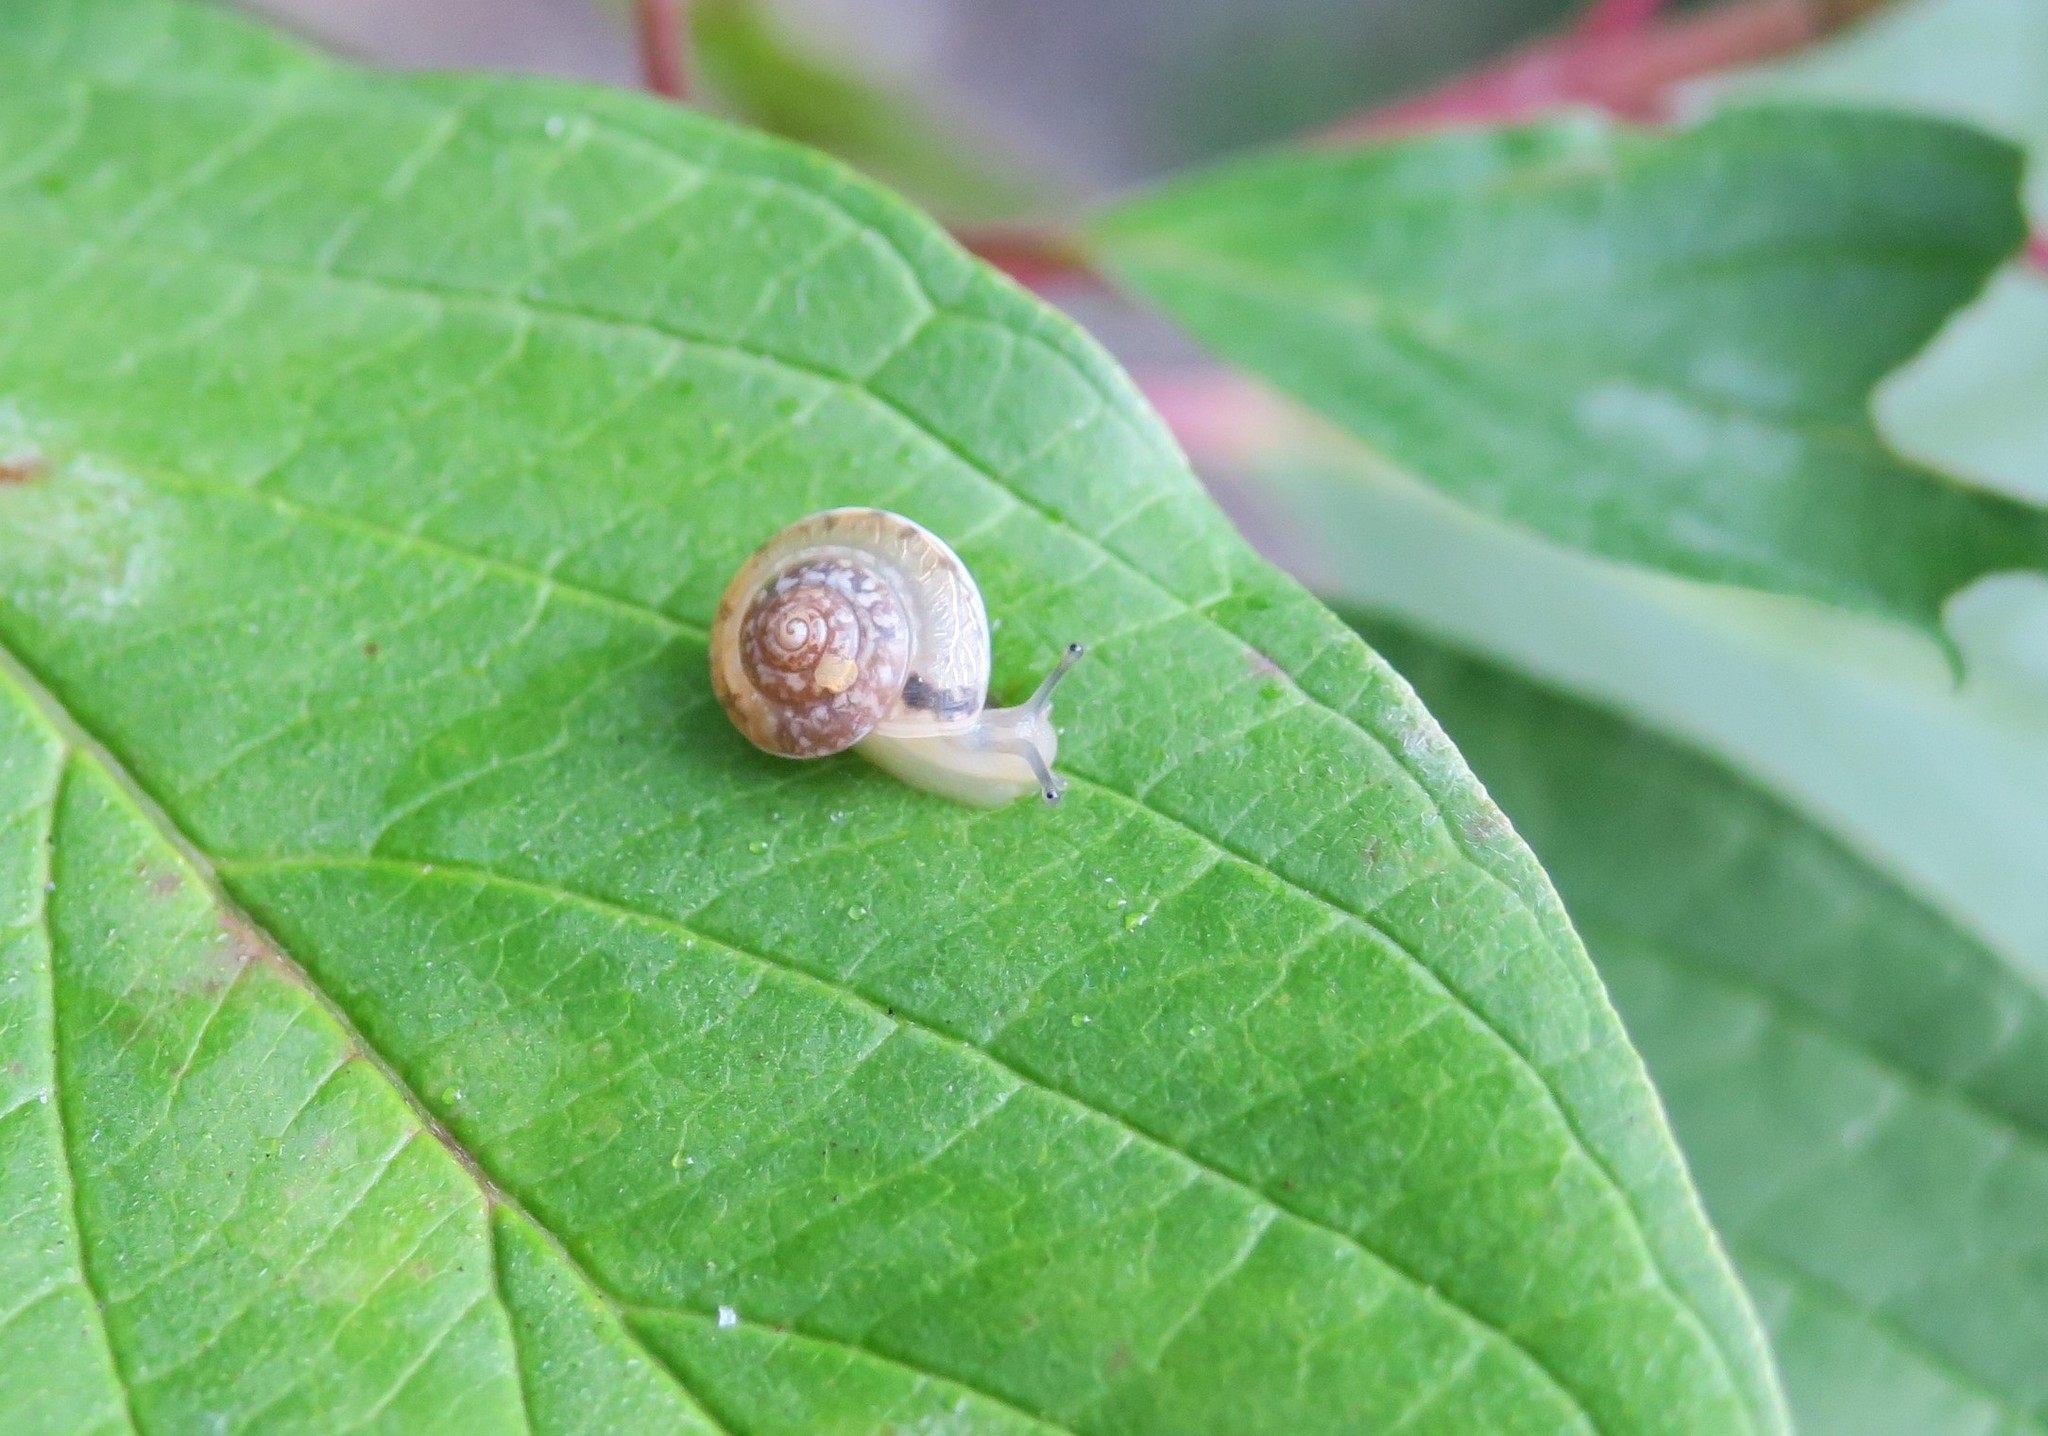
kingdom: Animalia
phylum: Mollusca
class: Gastropoda
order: Stylommatophora
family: Hygromiidae
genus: Hygromia
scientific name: Hygromia cinctella
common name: Girdled snail
